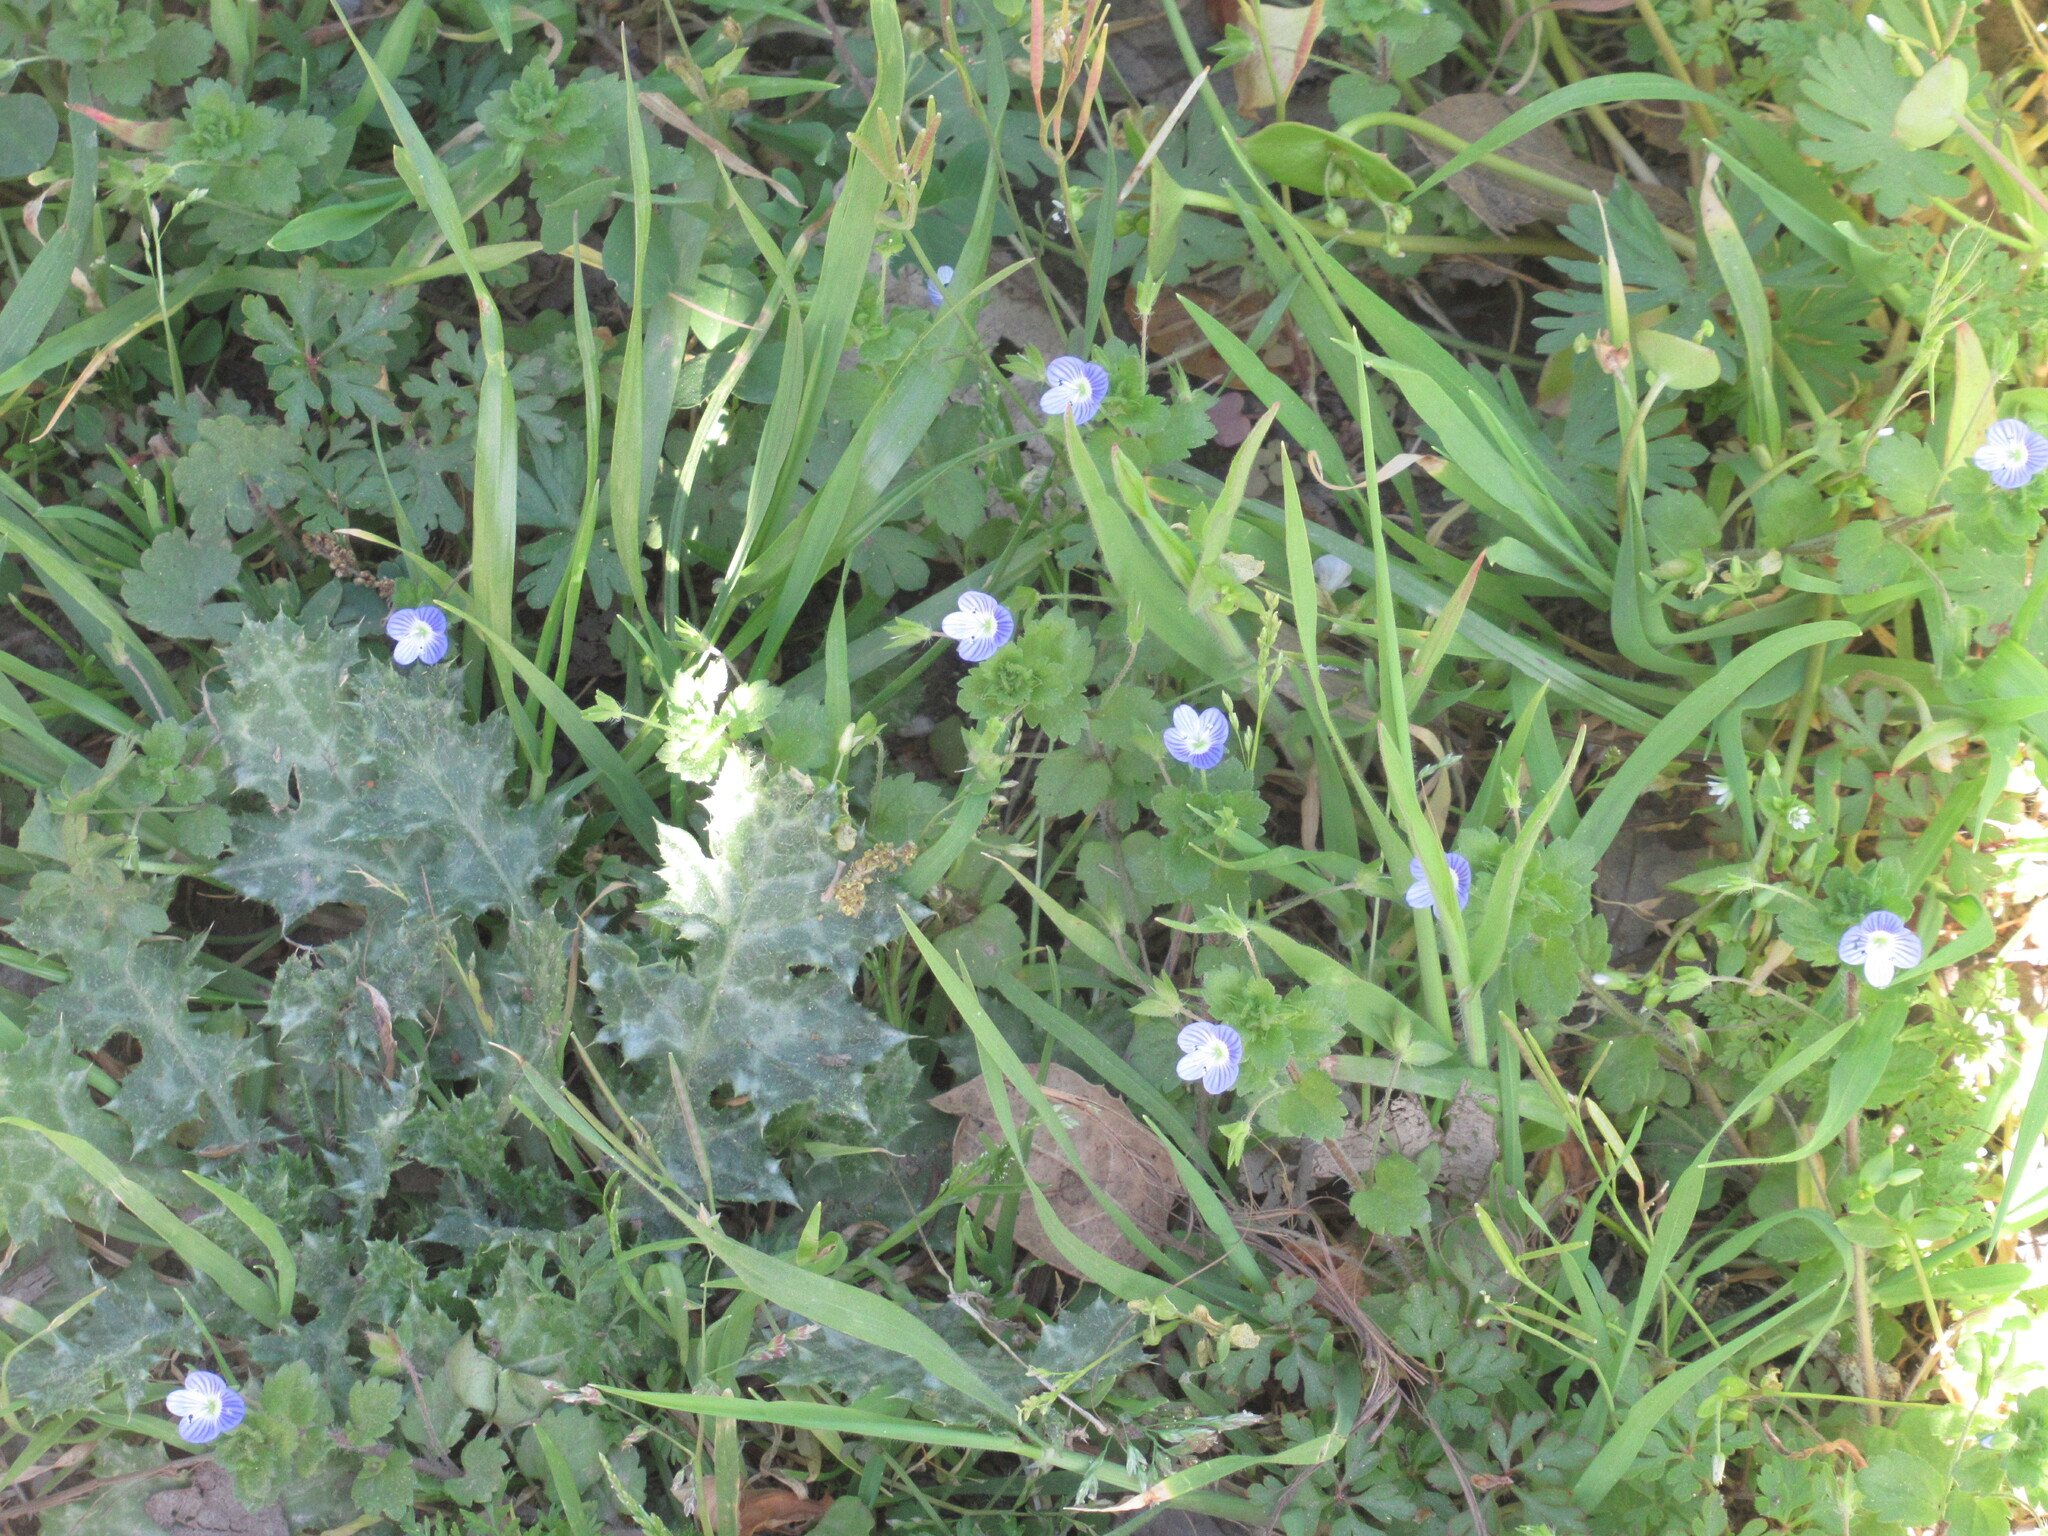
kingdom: Plantae
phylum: Tracheophyta
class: Magnoliopsida
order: Lamiales
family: Plantaginaceae
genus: Veronica
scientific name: Veronica persica
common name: Common field-speedwell
